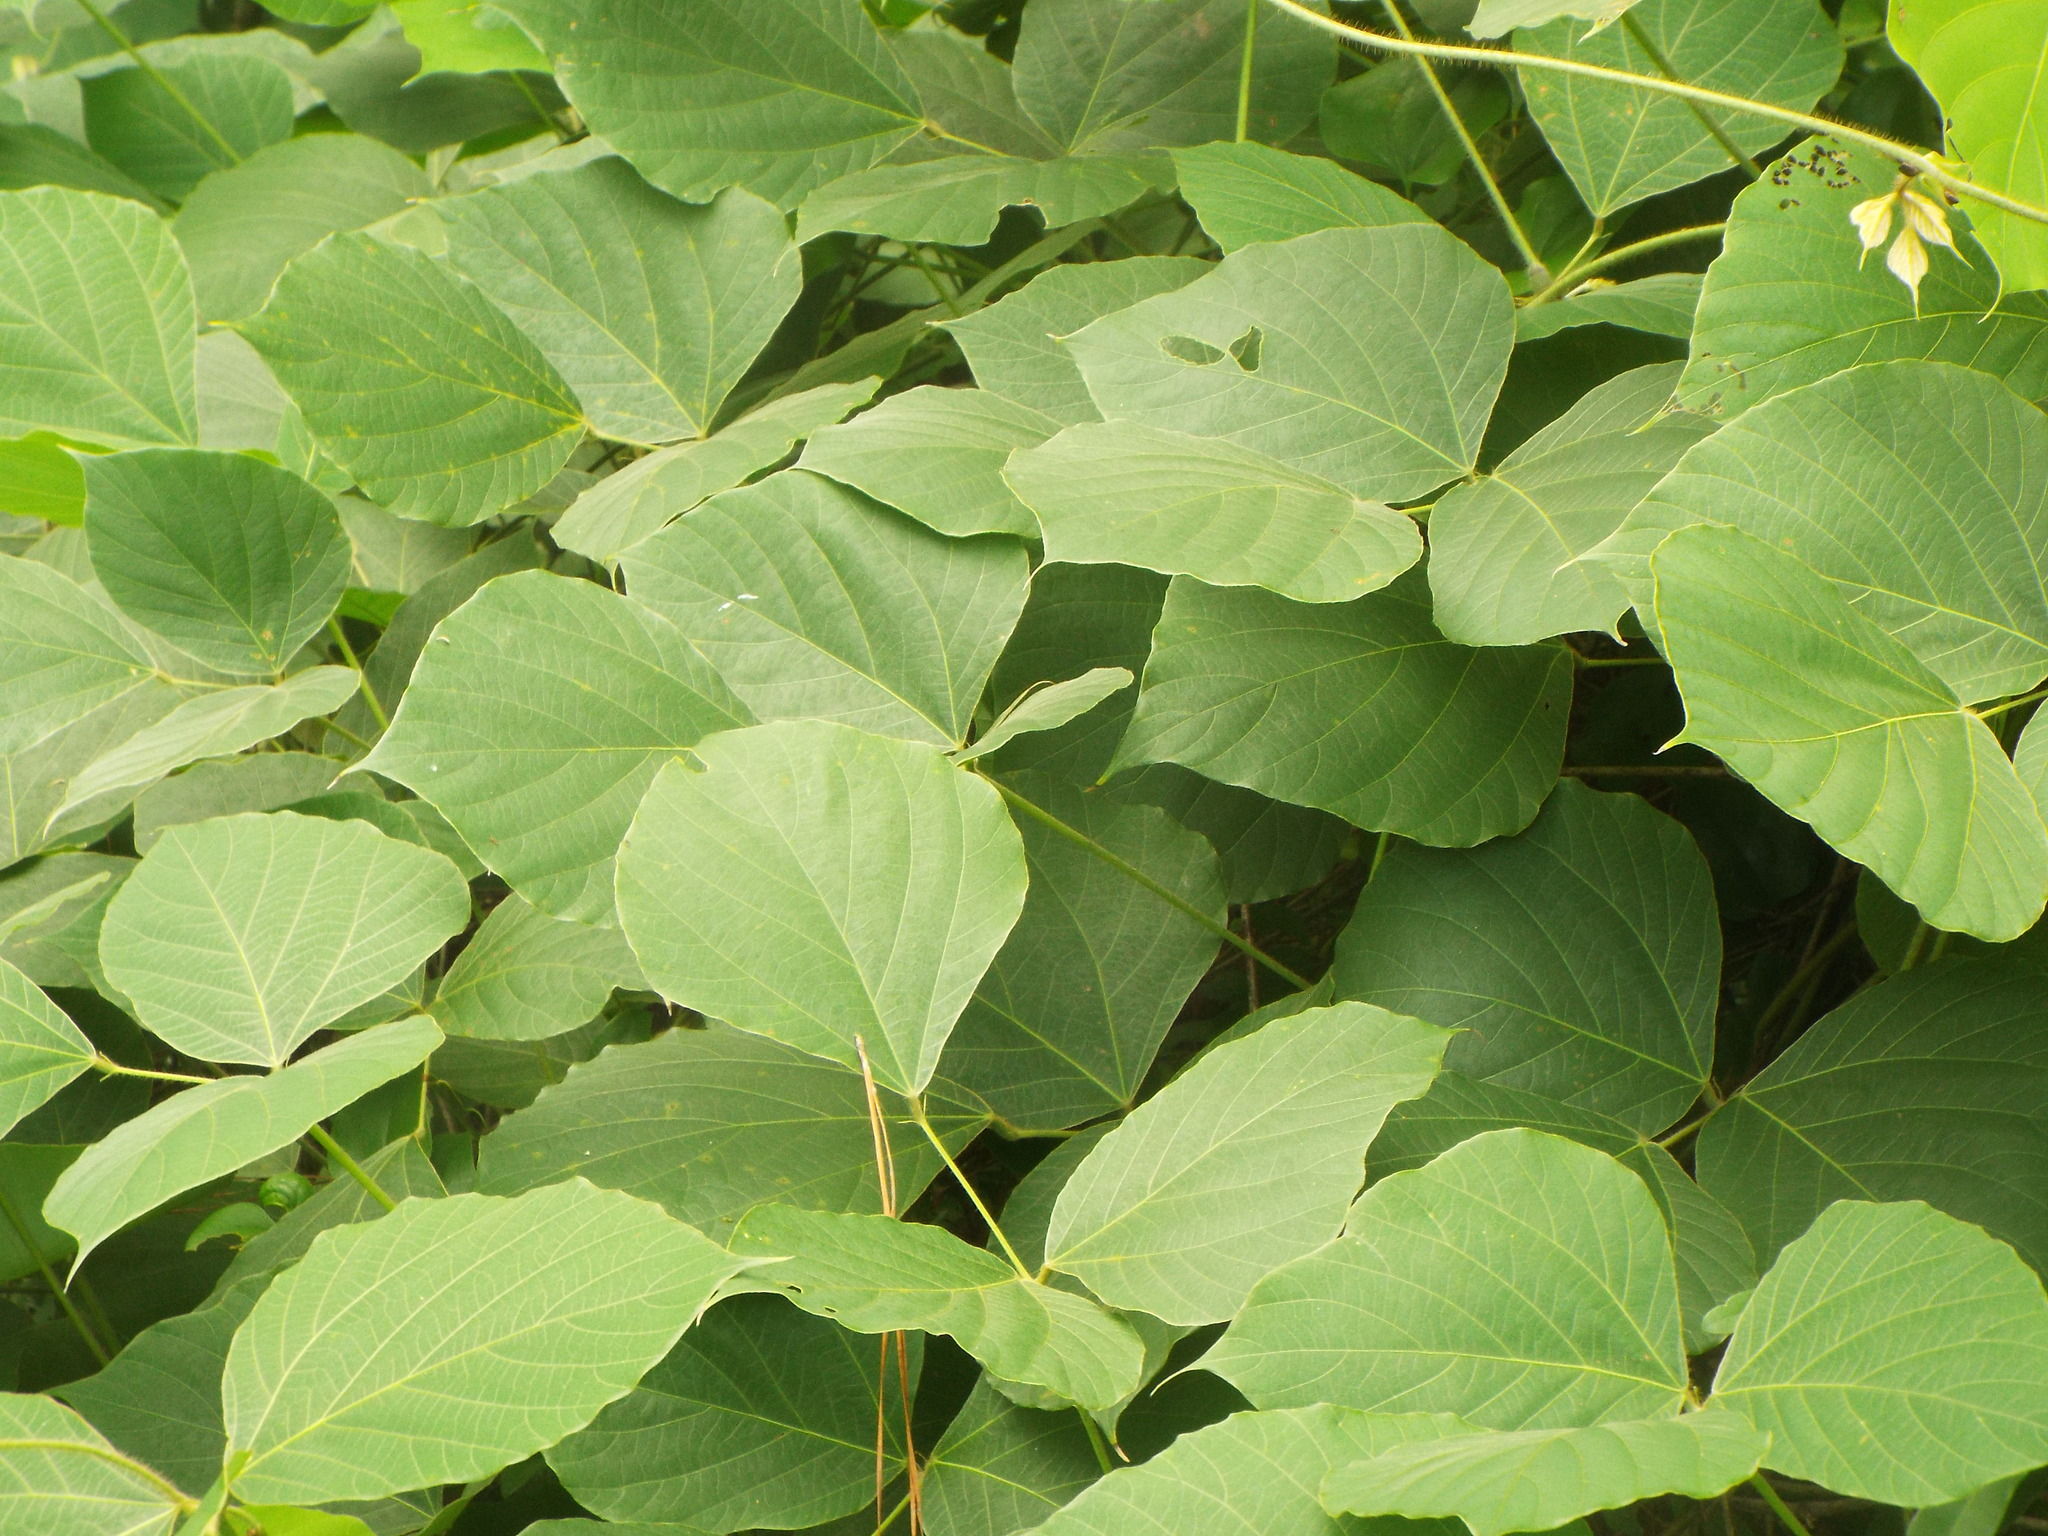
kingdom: Plantae
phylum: Tracheophyta
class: Magnoliopsida
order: Fabales
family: Fabaceae
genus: Pueraria
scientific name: Pueraria montana
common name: Kudzu
